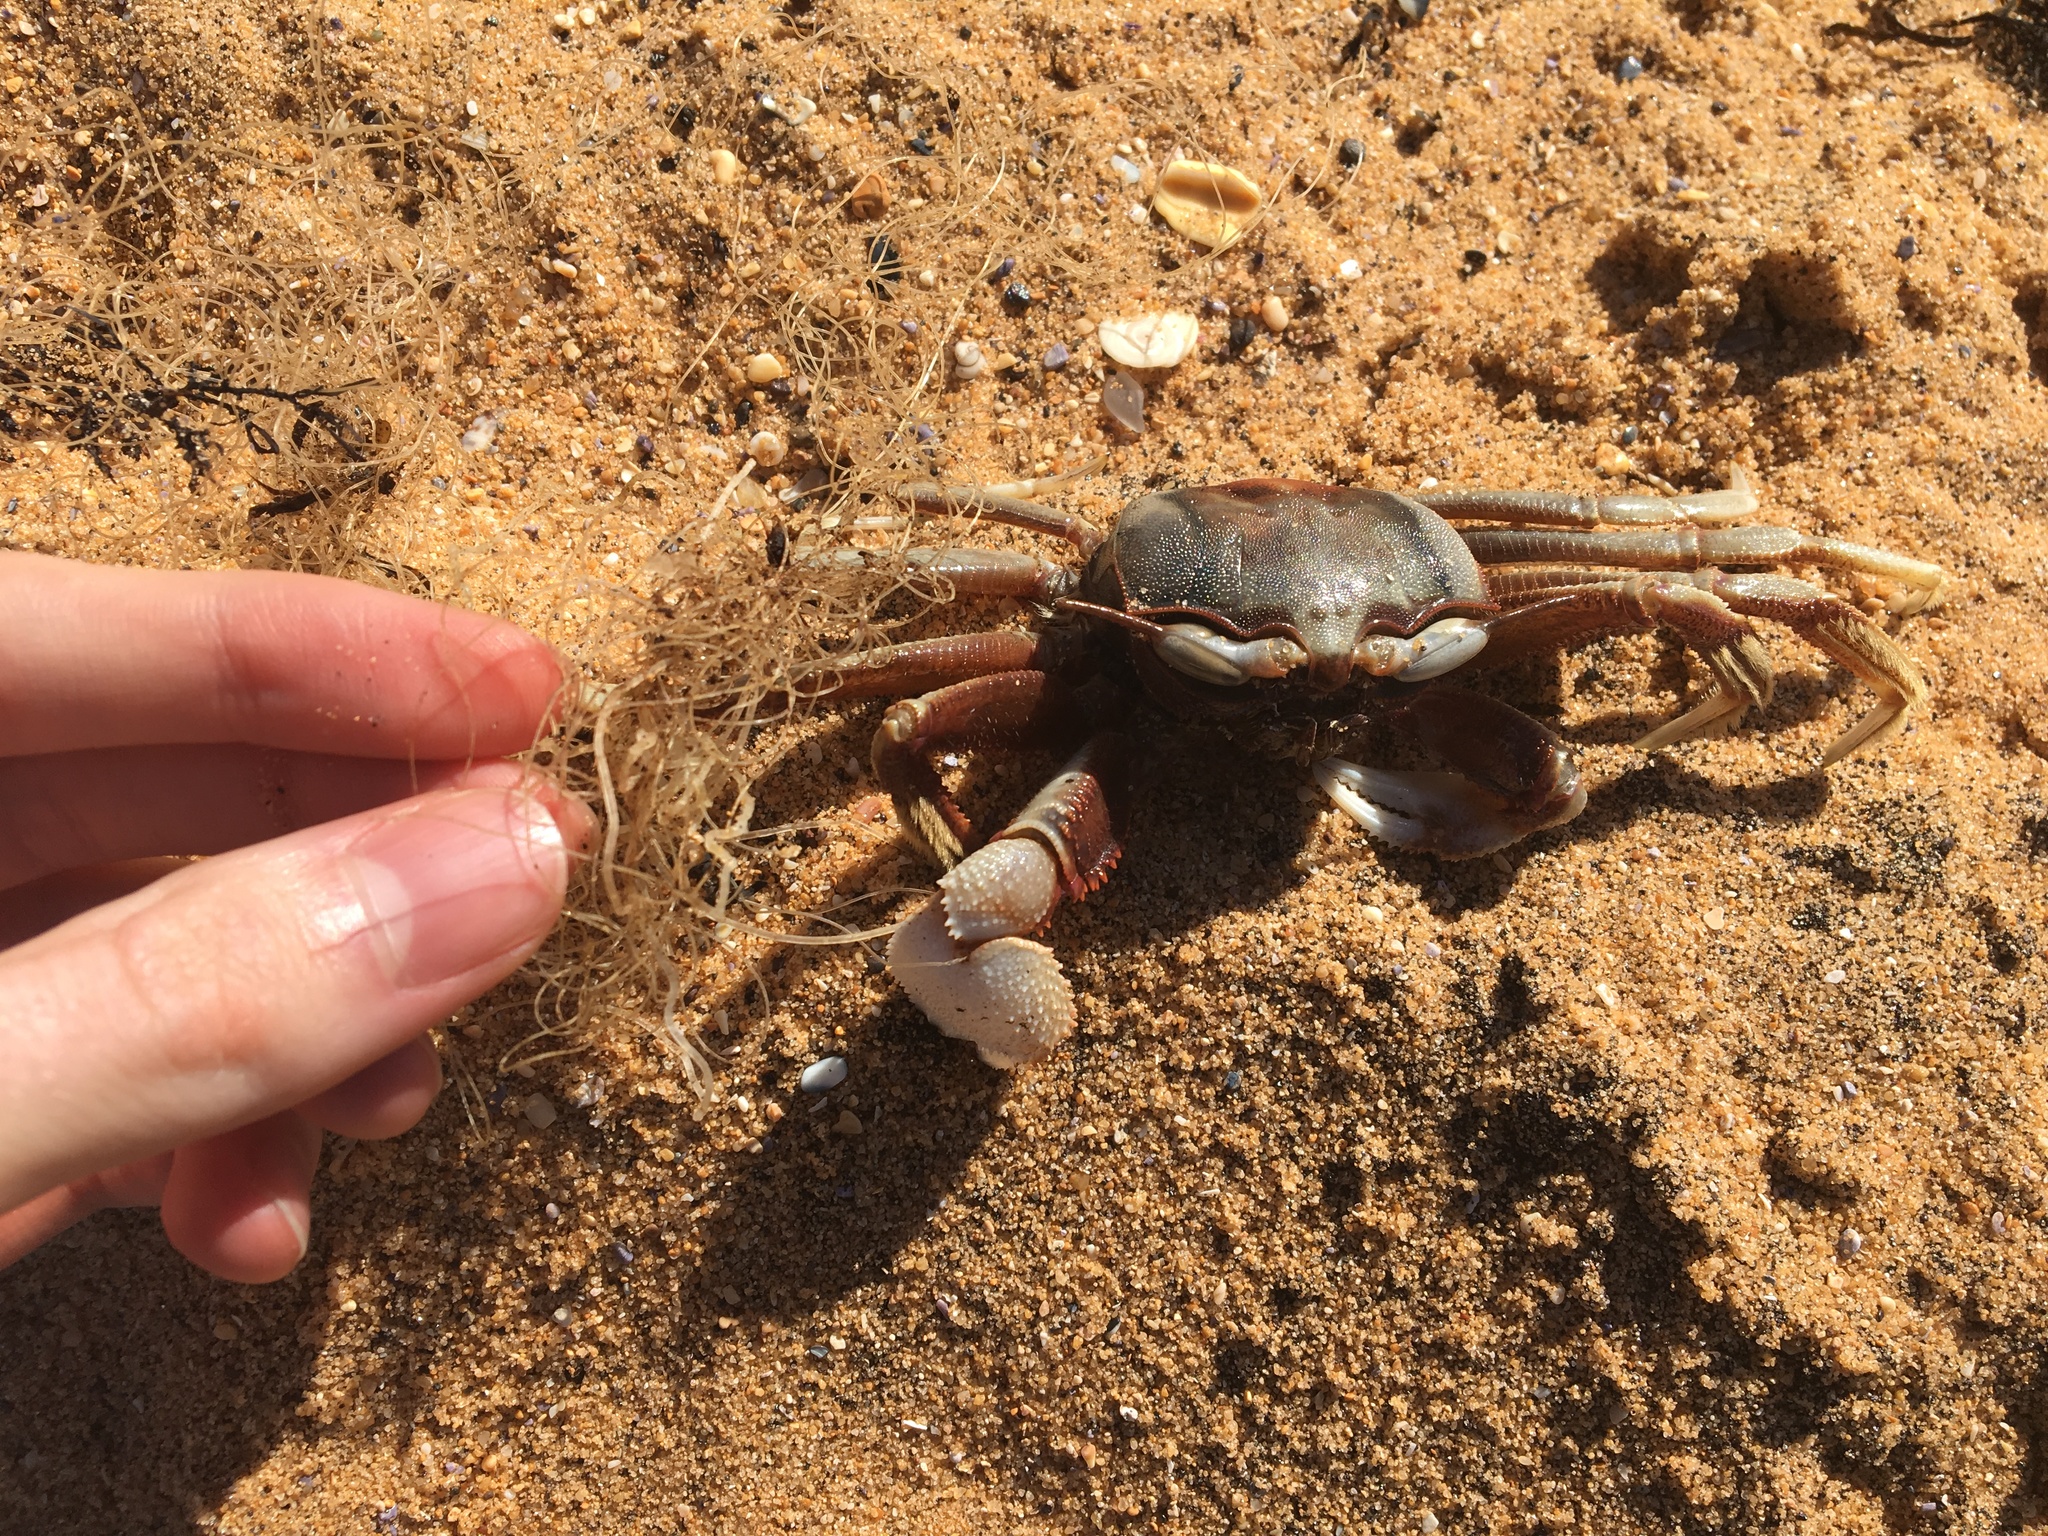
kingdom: Animalia
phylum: Arthropoda
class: Malacostraca
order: Decapoda
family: Ocypodidae
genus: Ocypode
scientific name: Ocypode ceratophthalmus
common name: Indo-pacific ghost crab
